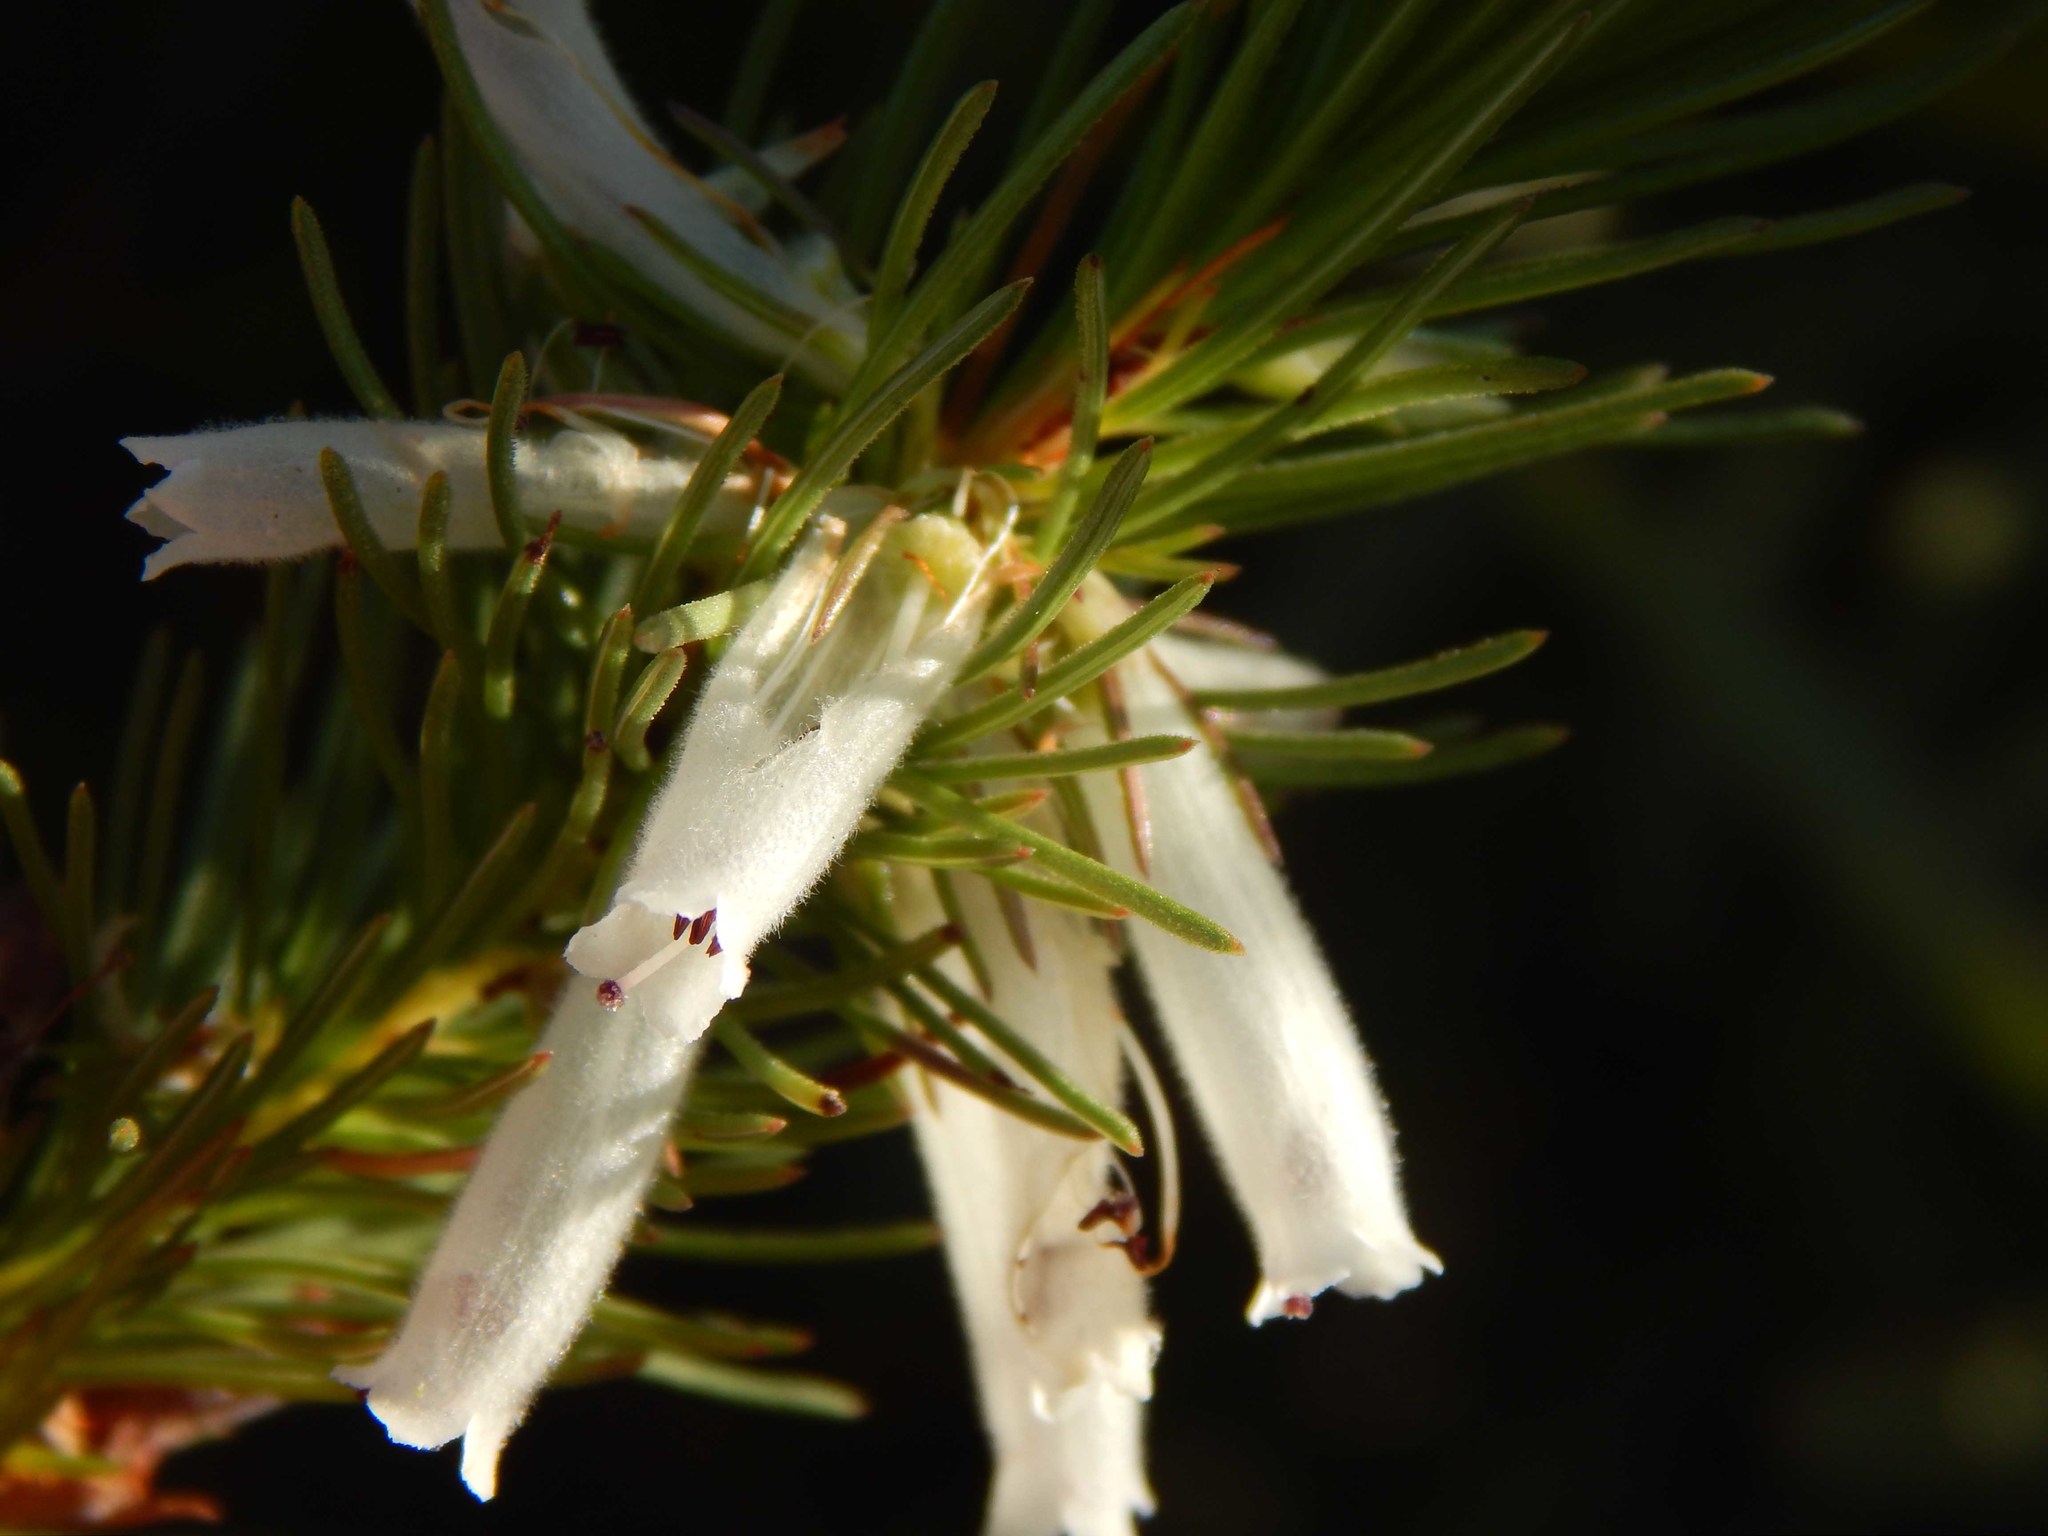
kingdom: Plantae
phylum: Tracheophyta
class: Magnoliopsida
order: Ericales
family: Ericaceae
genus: Erica
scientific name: Erica vestita
